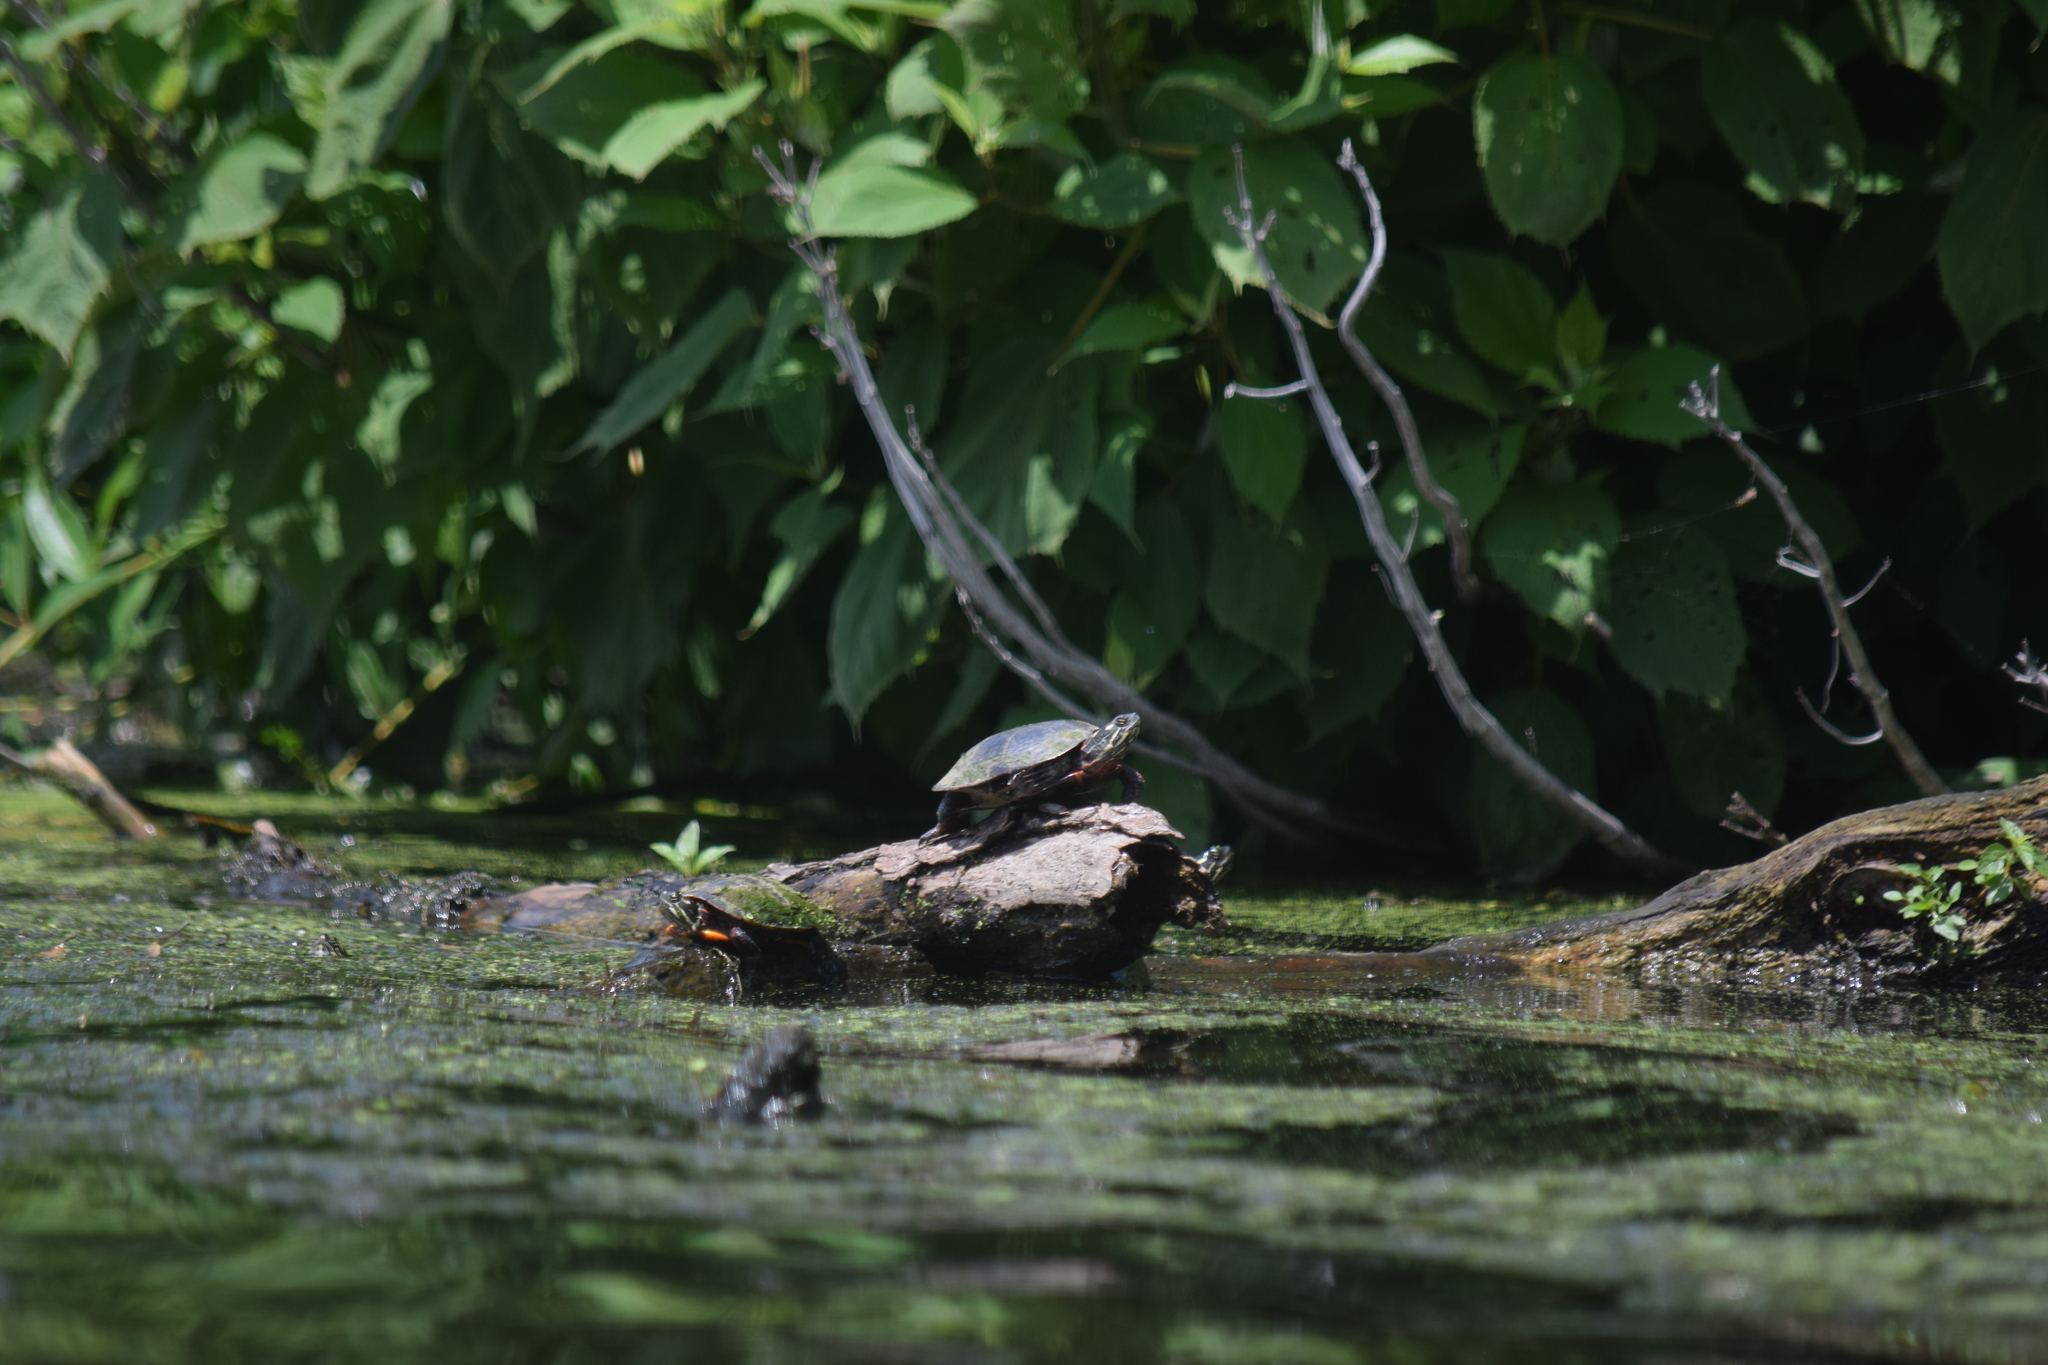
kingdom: Animalia
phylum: Chordata
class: Testudines
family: Emydidae
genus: Chrysemys
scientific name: Chrysemys picta
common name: Painted turtle
